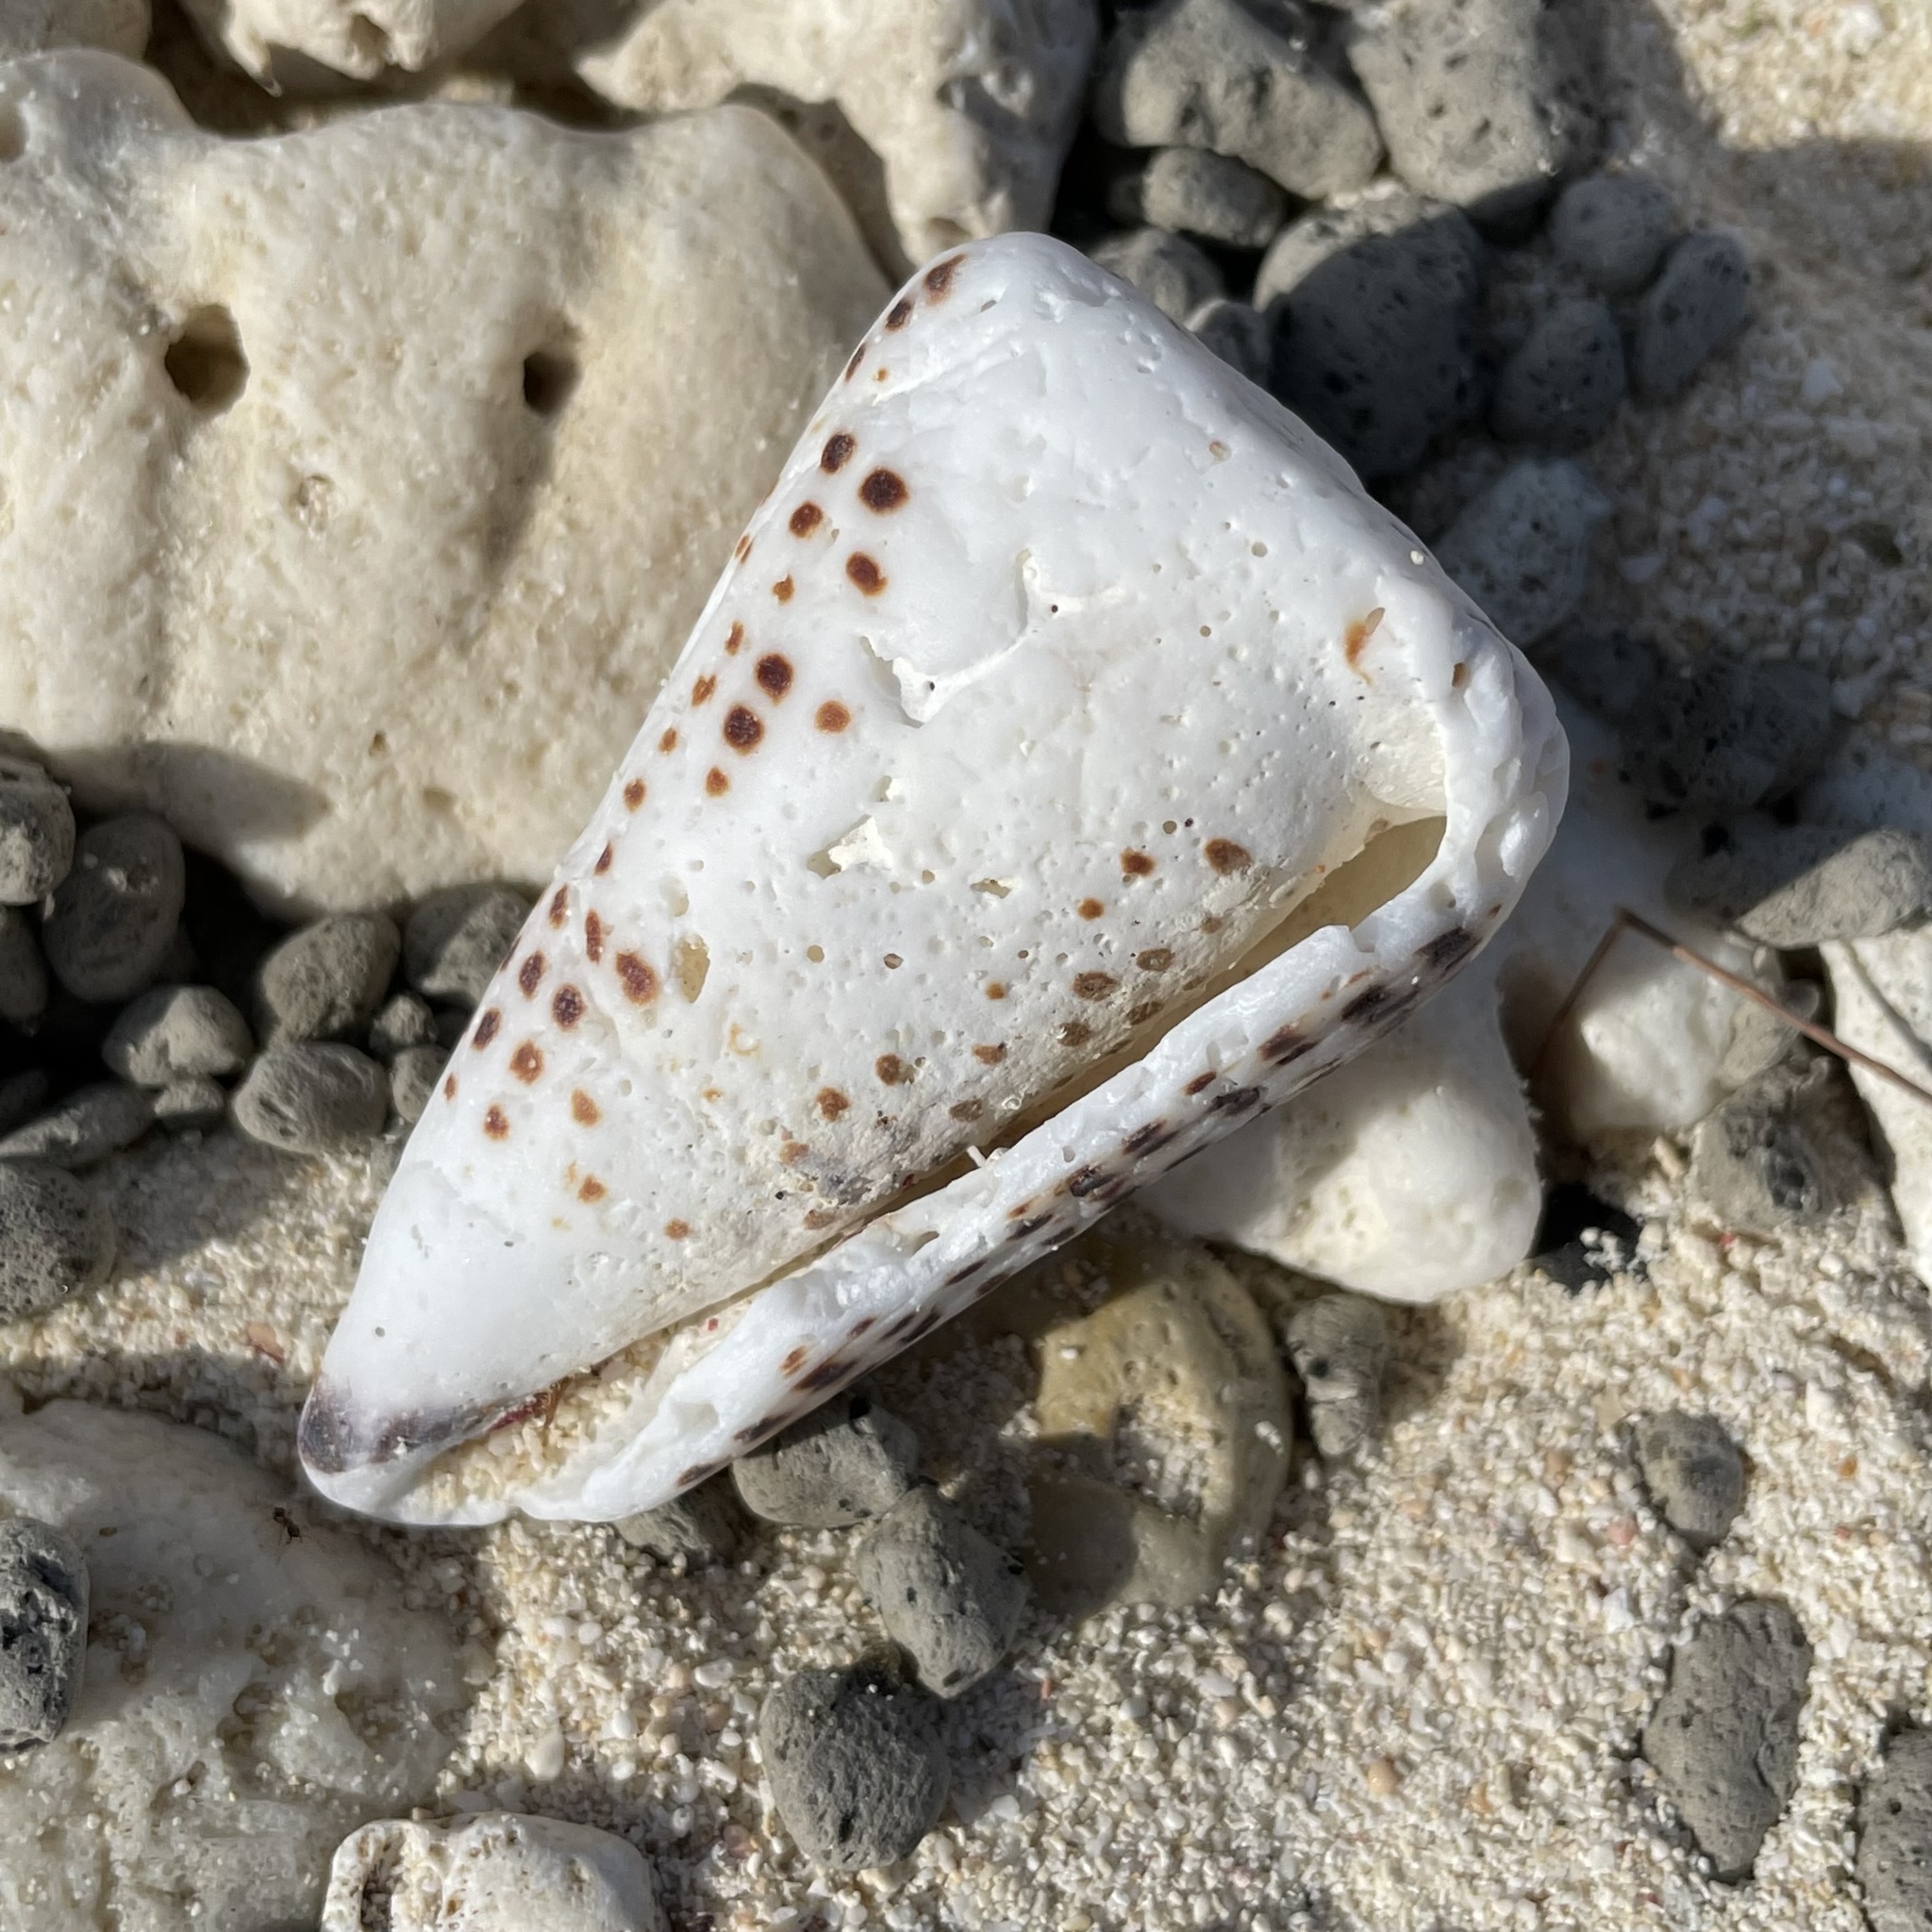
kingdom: Animalia
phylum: Mollusca
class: Gastropoda
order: Neogastropoda
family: Conidae
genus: Conus
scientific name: Conus litteratus
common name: Lettered cone
